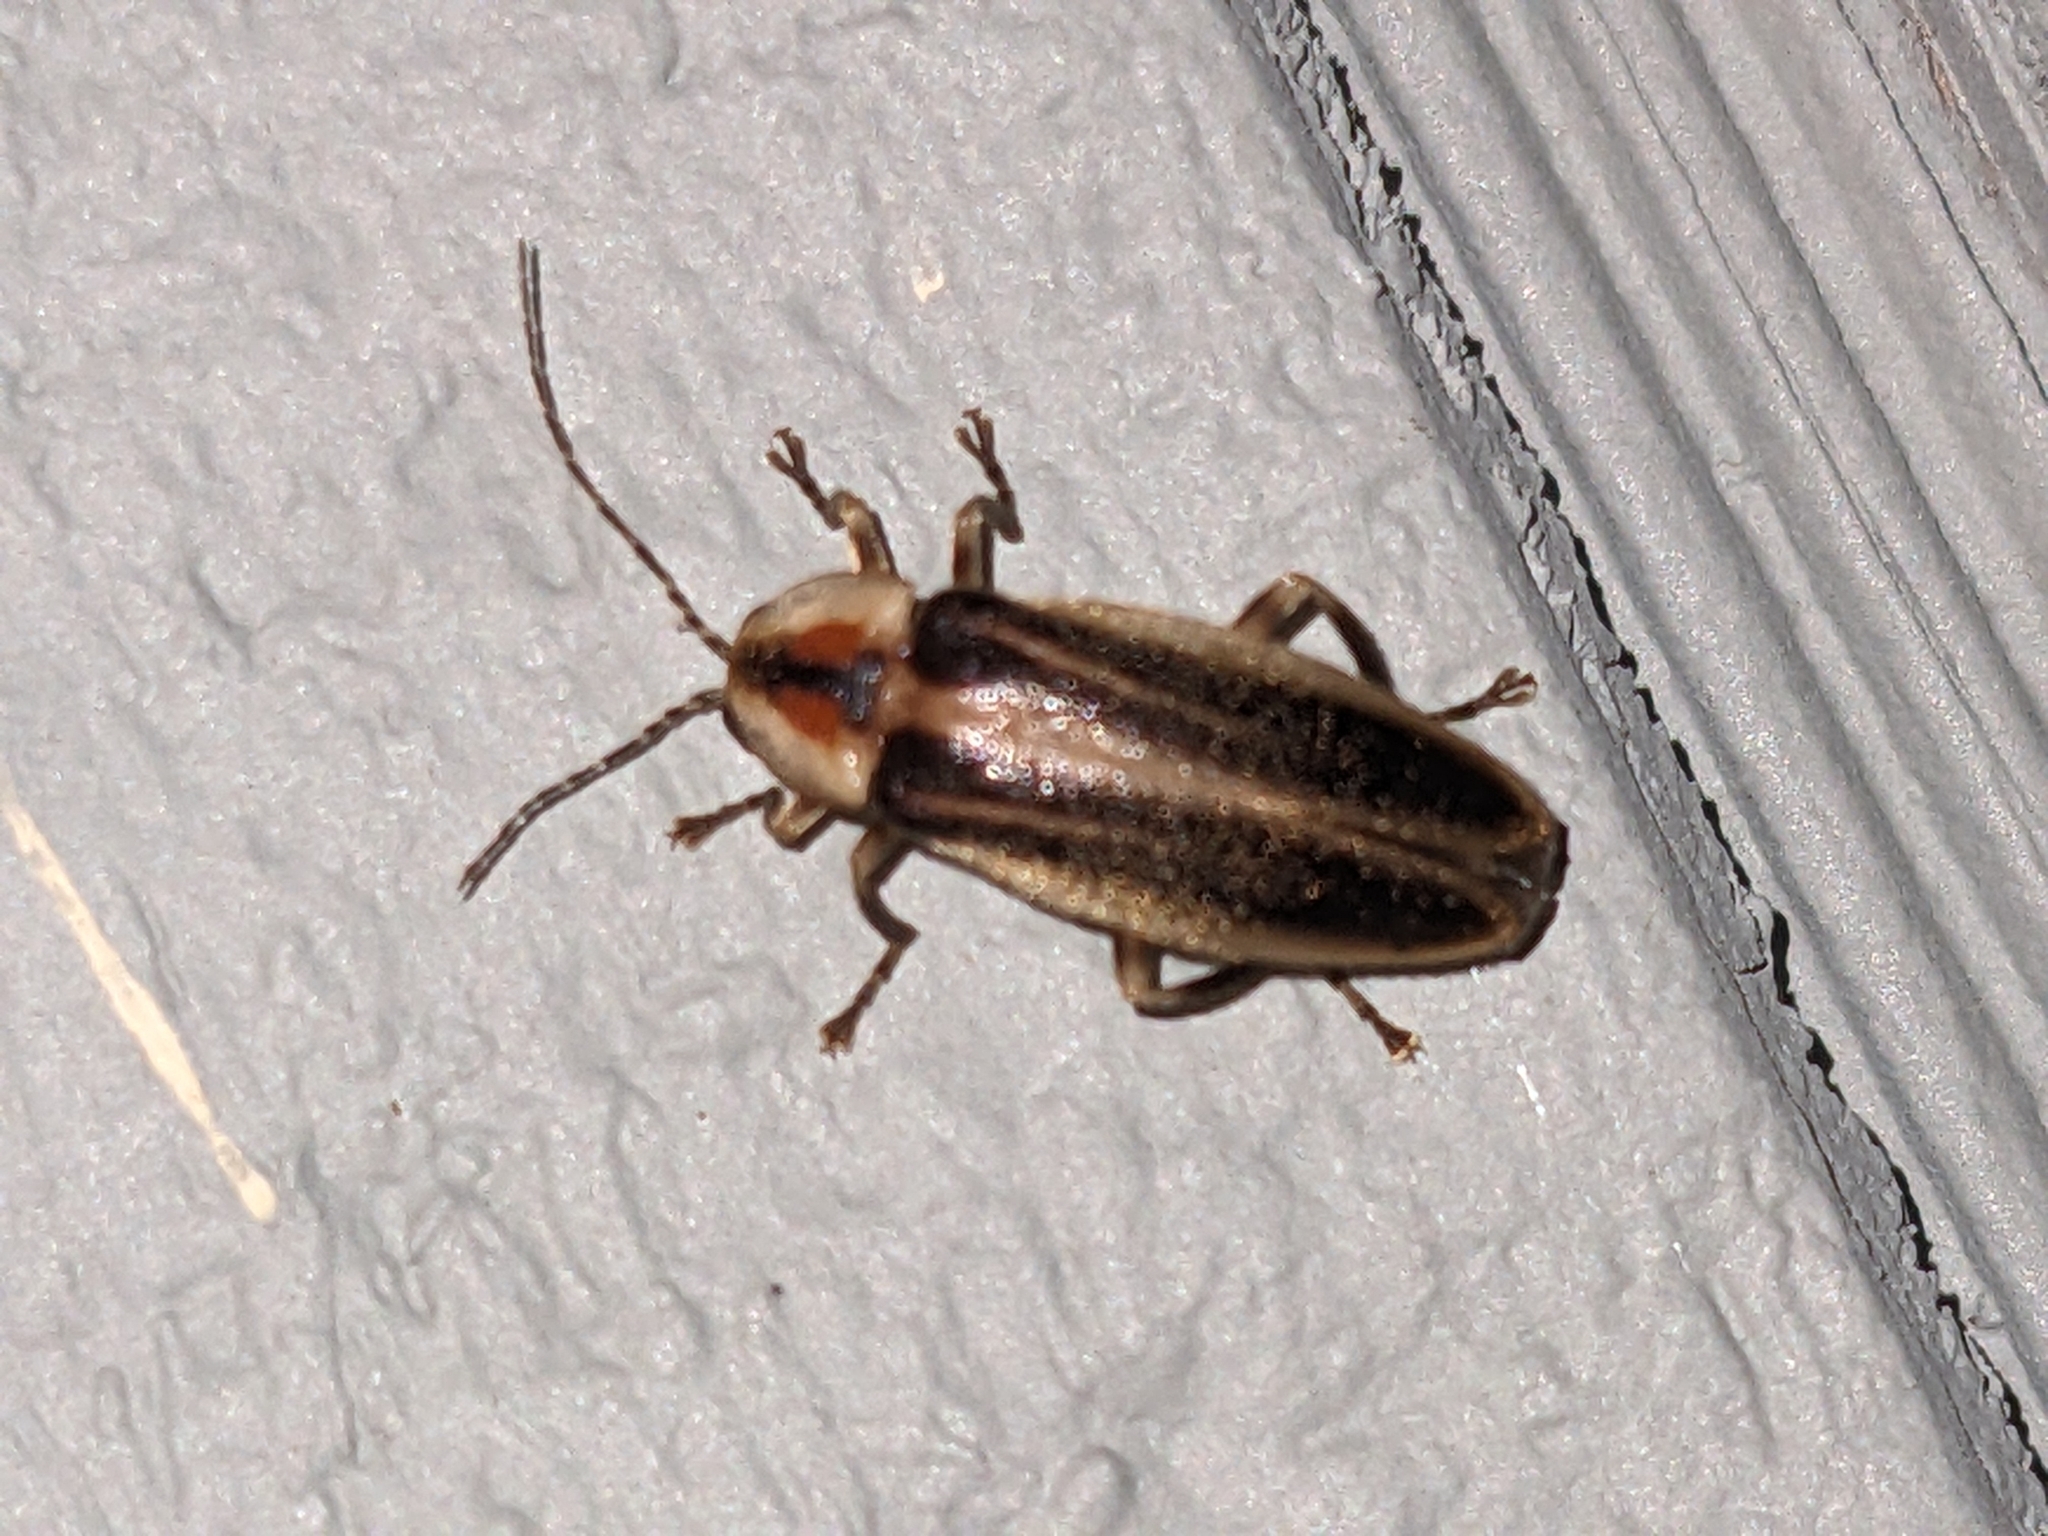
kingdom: Animalia
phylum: Arthropoda
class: Insecta
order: Coleoptera
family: Lampyridae
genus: Photuris
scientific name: Photuris
